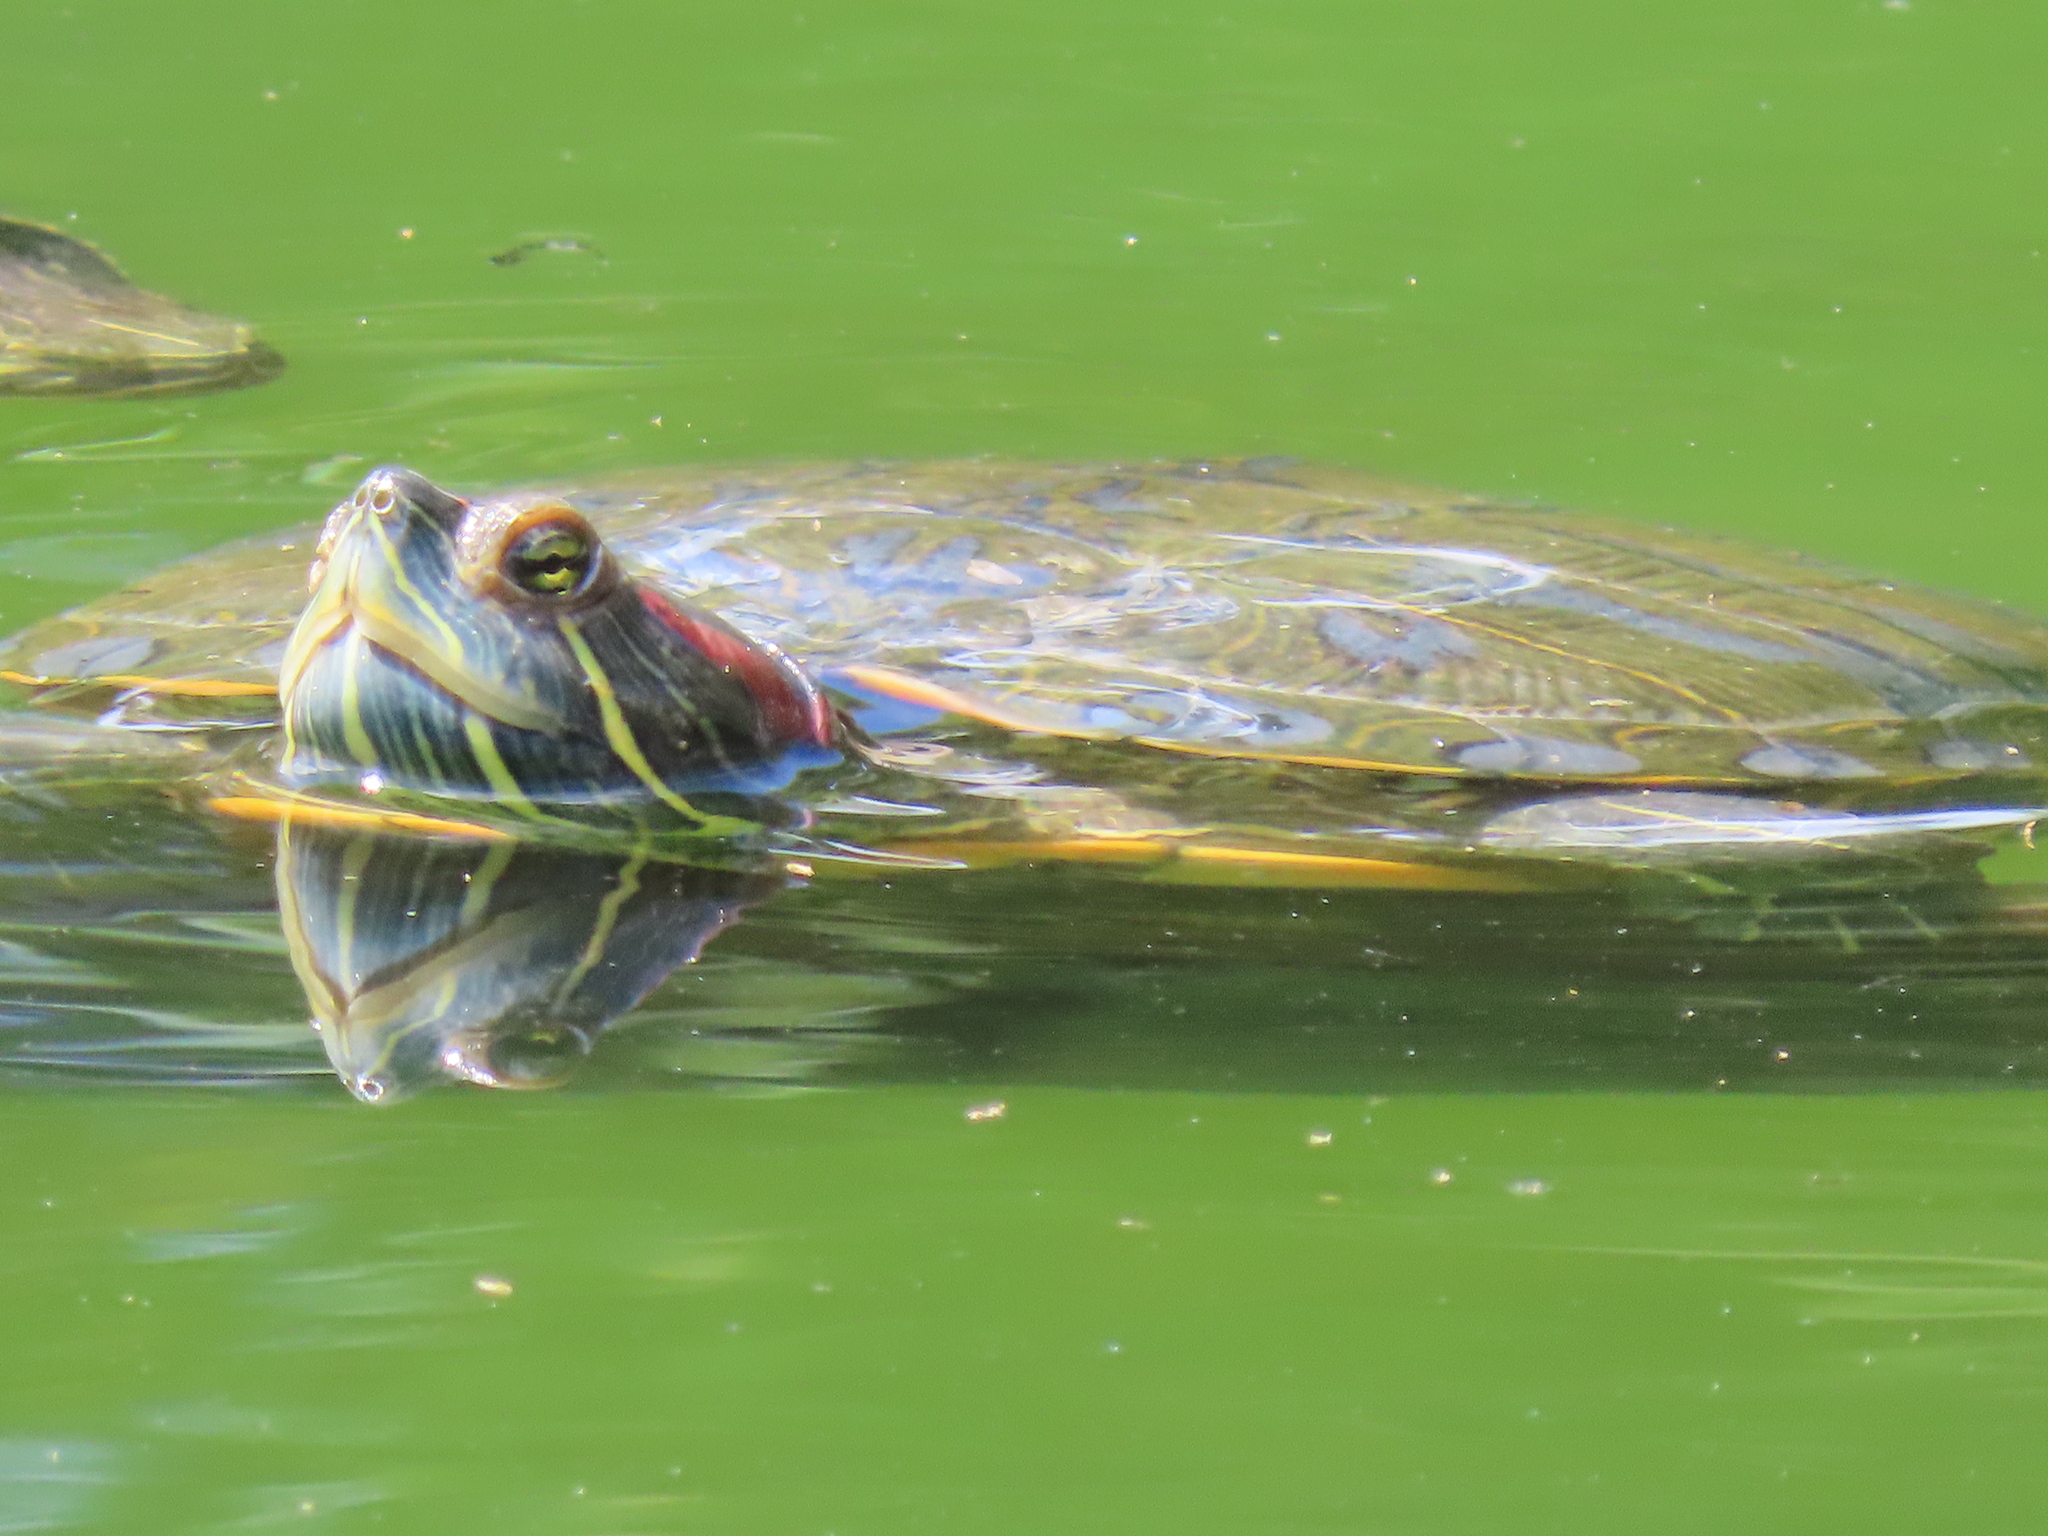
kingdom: Animalia
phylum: Chordata
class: Testudines
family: Emydidae
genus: Trachemys
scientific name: Trachemys scripta
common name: Slider
